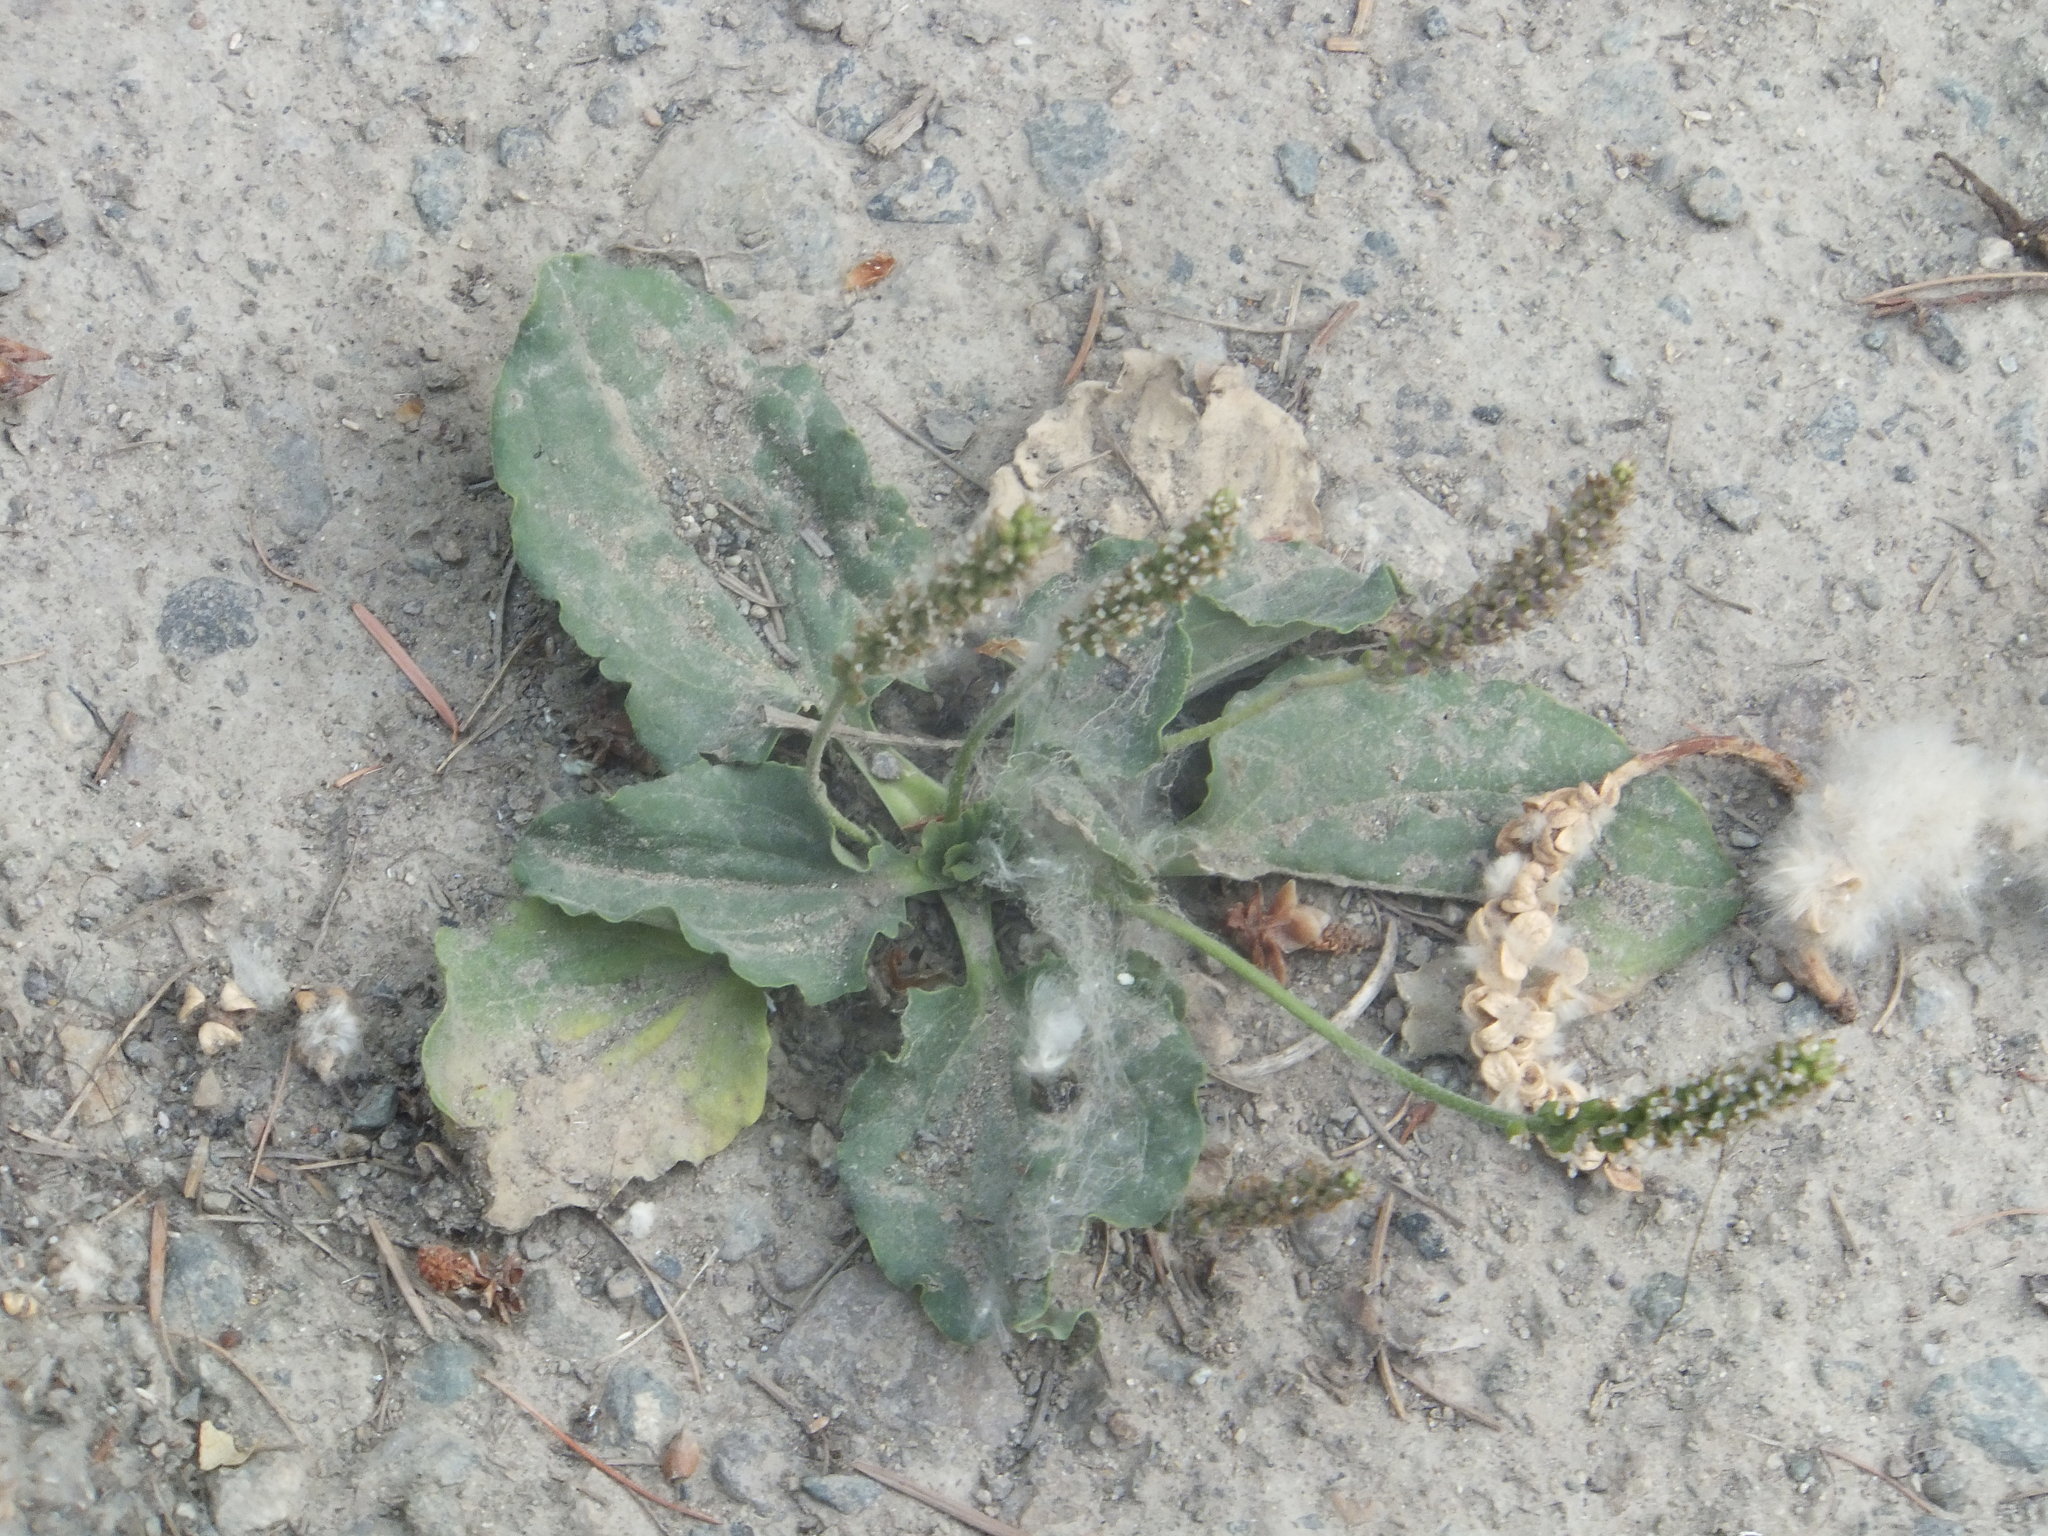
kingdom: Plantae
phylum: Tracheophyta
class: Magnoliopsida
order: Lamiales
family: Plantaginaceae
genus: Plantago
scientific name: Plantago major
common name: Common plantain
